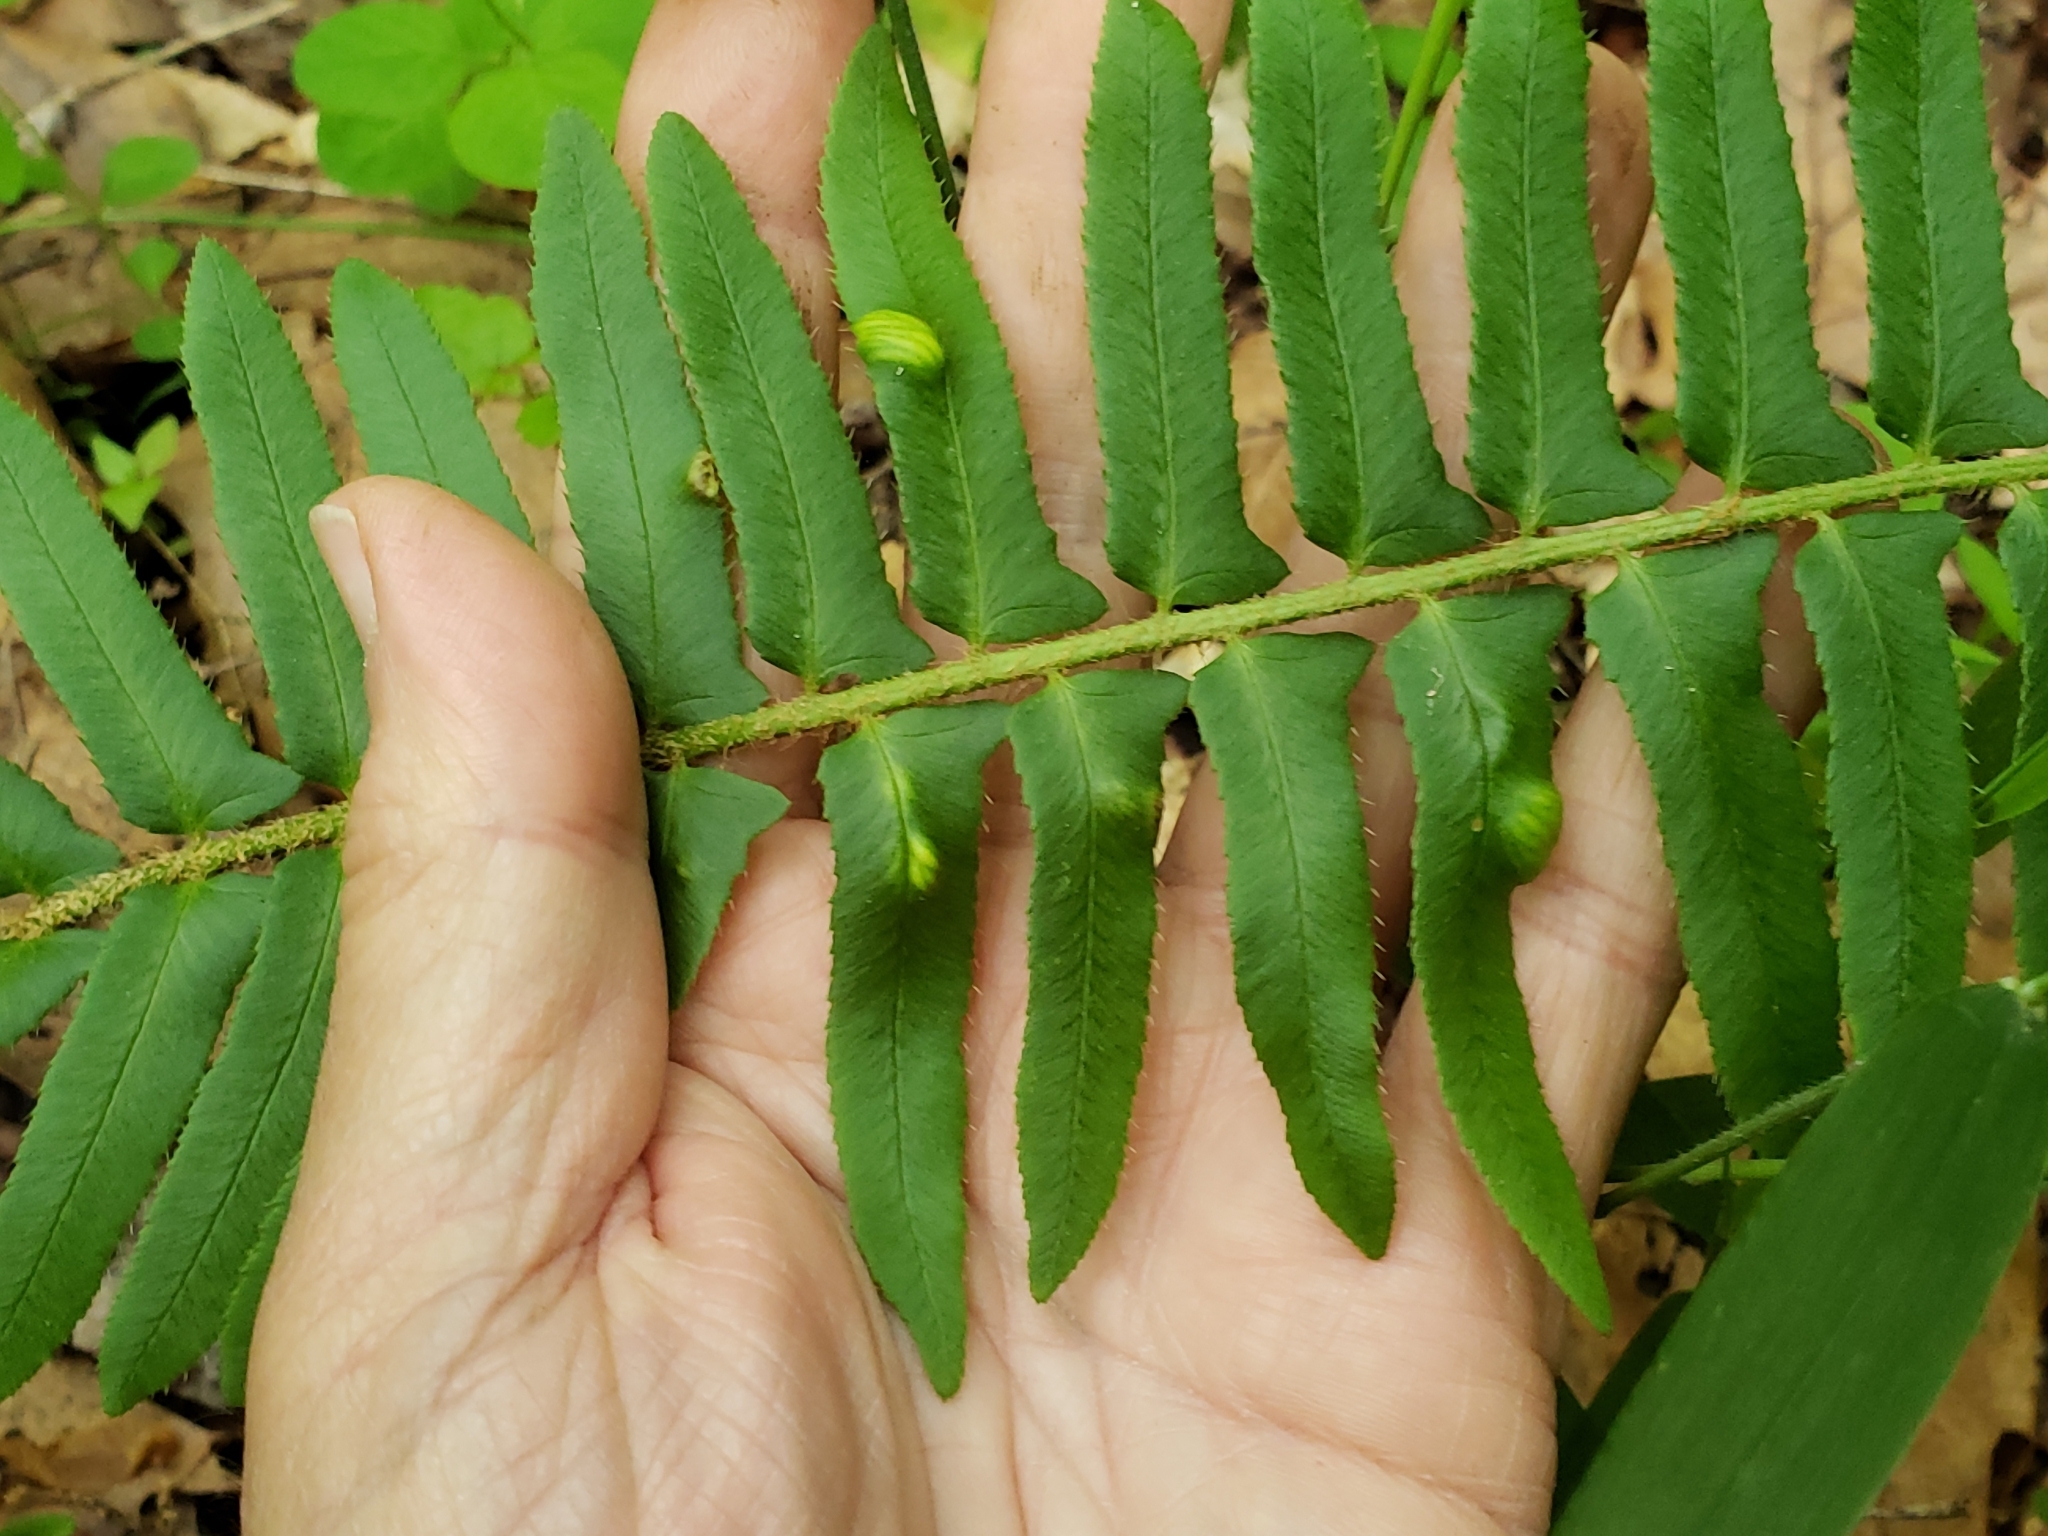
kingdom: Fungi
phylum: Ascomycota
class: Taphrinomycetes
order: Taphrinales
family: Taphrinaceae
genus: Taphrina
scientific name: Taphrina polystichi
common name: Christmas fern leaf curl
